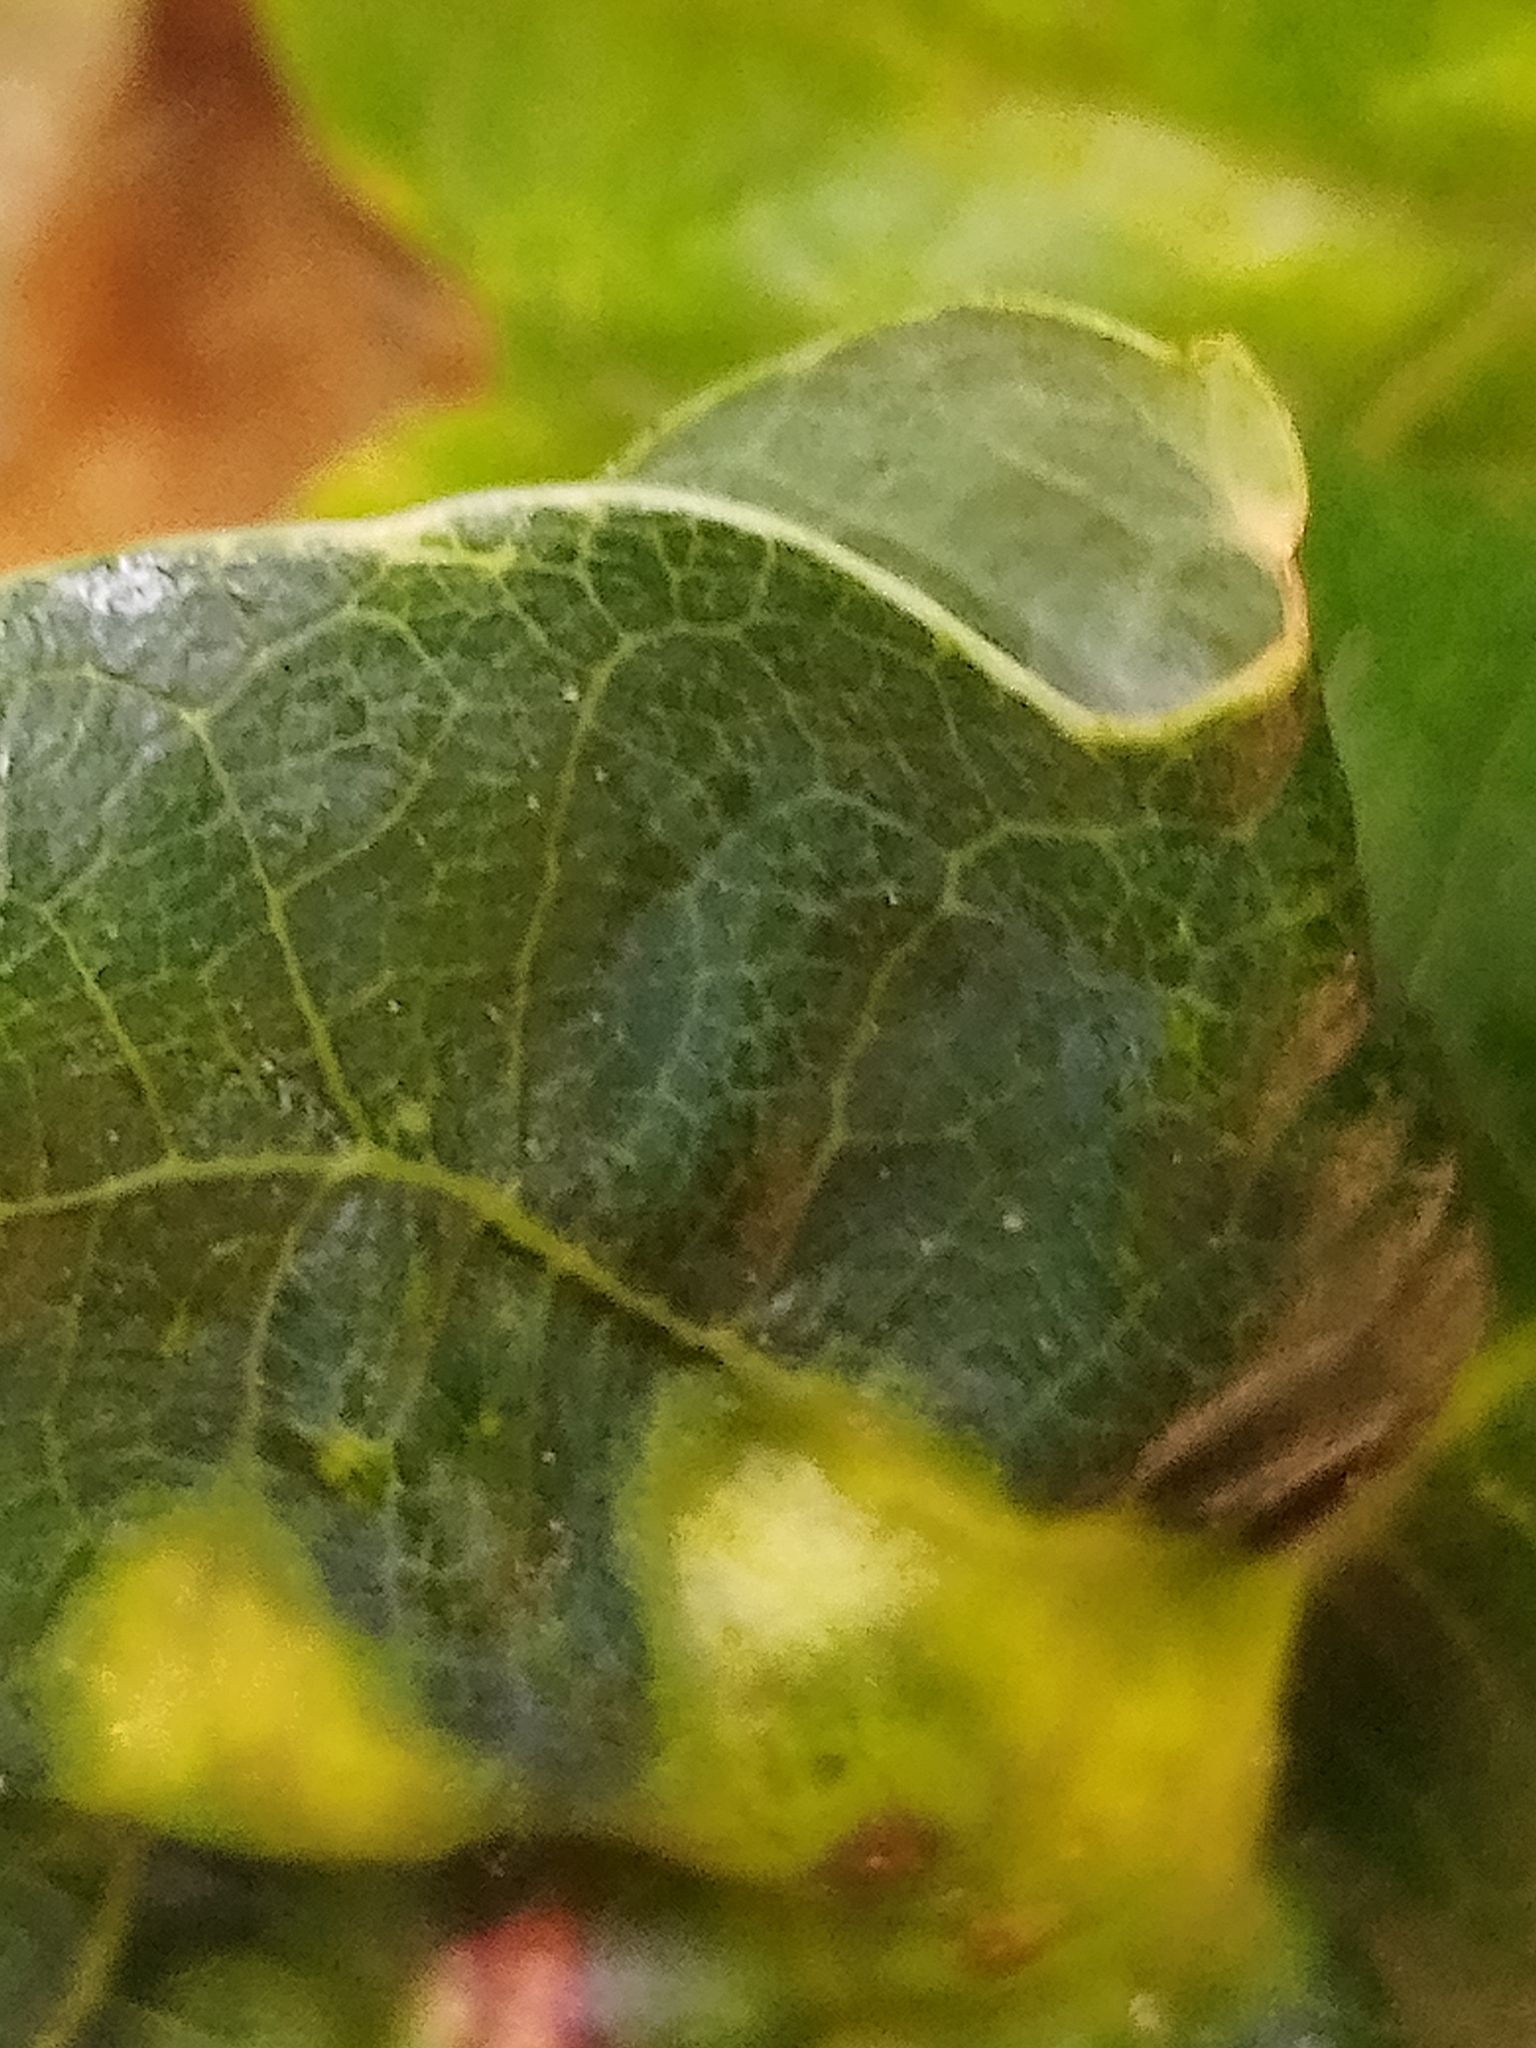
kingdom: Animalia
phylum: Arthropoda
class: Insecta
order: Hymenoptera
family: Cynipidae
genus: Andricus
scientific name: Andricus curvator
